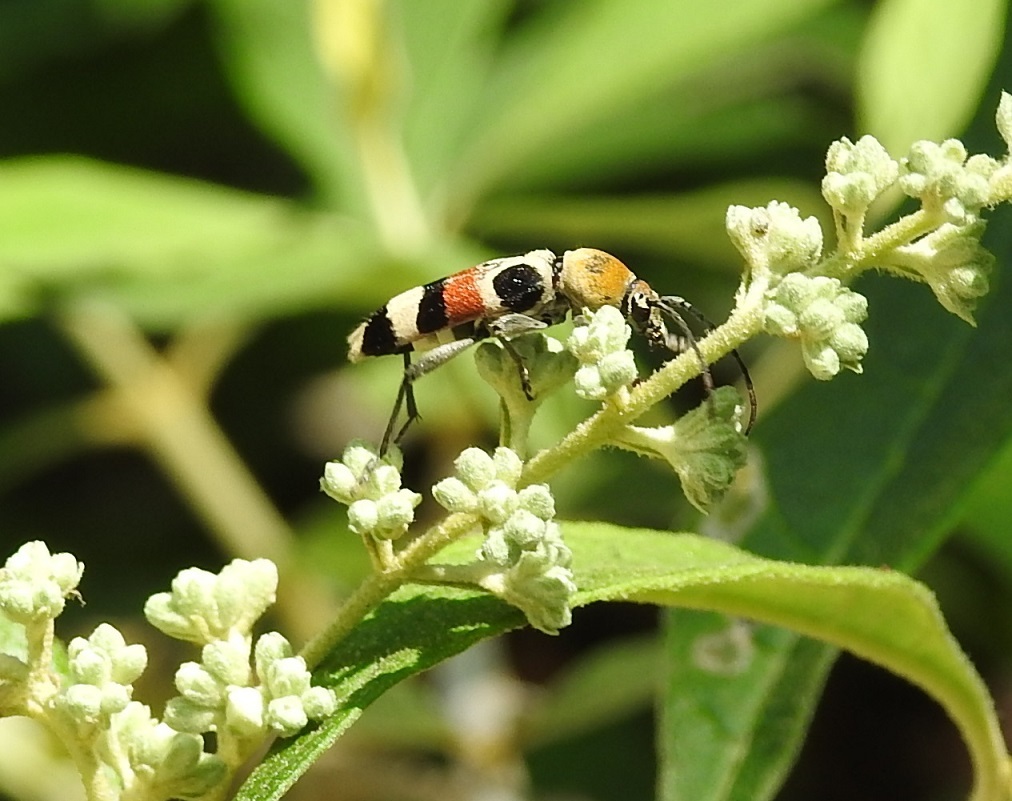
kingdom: Animalia
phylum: Arthropoda
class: Insecta
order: Coleoptera
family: Cerambycidae
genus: Anthoboscus
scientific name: Anthoboscus oculatus
